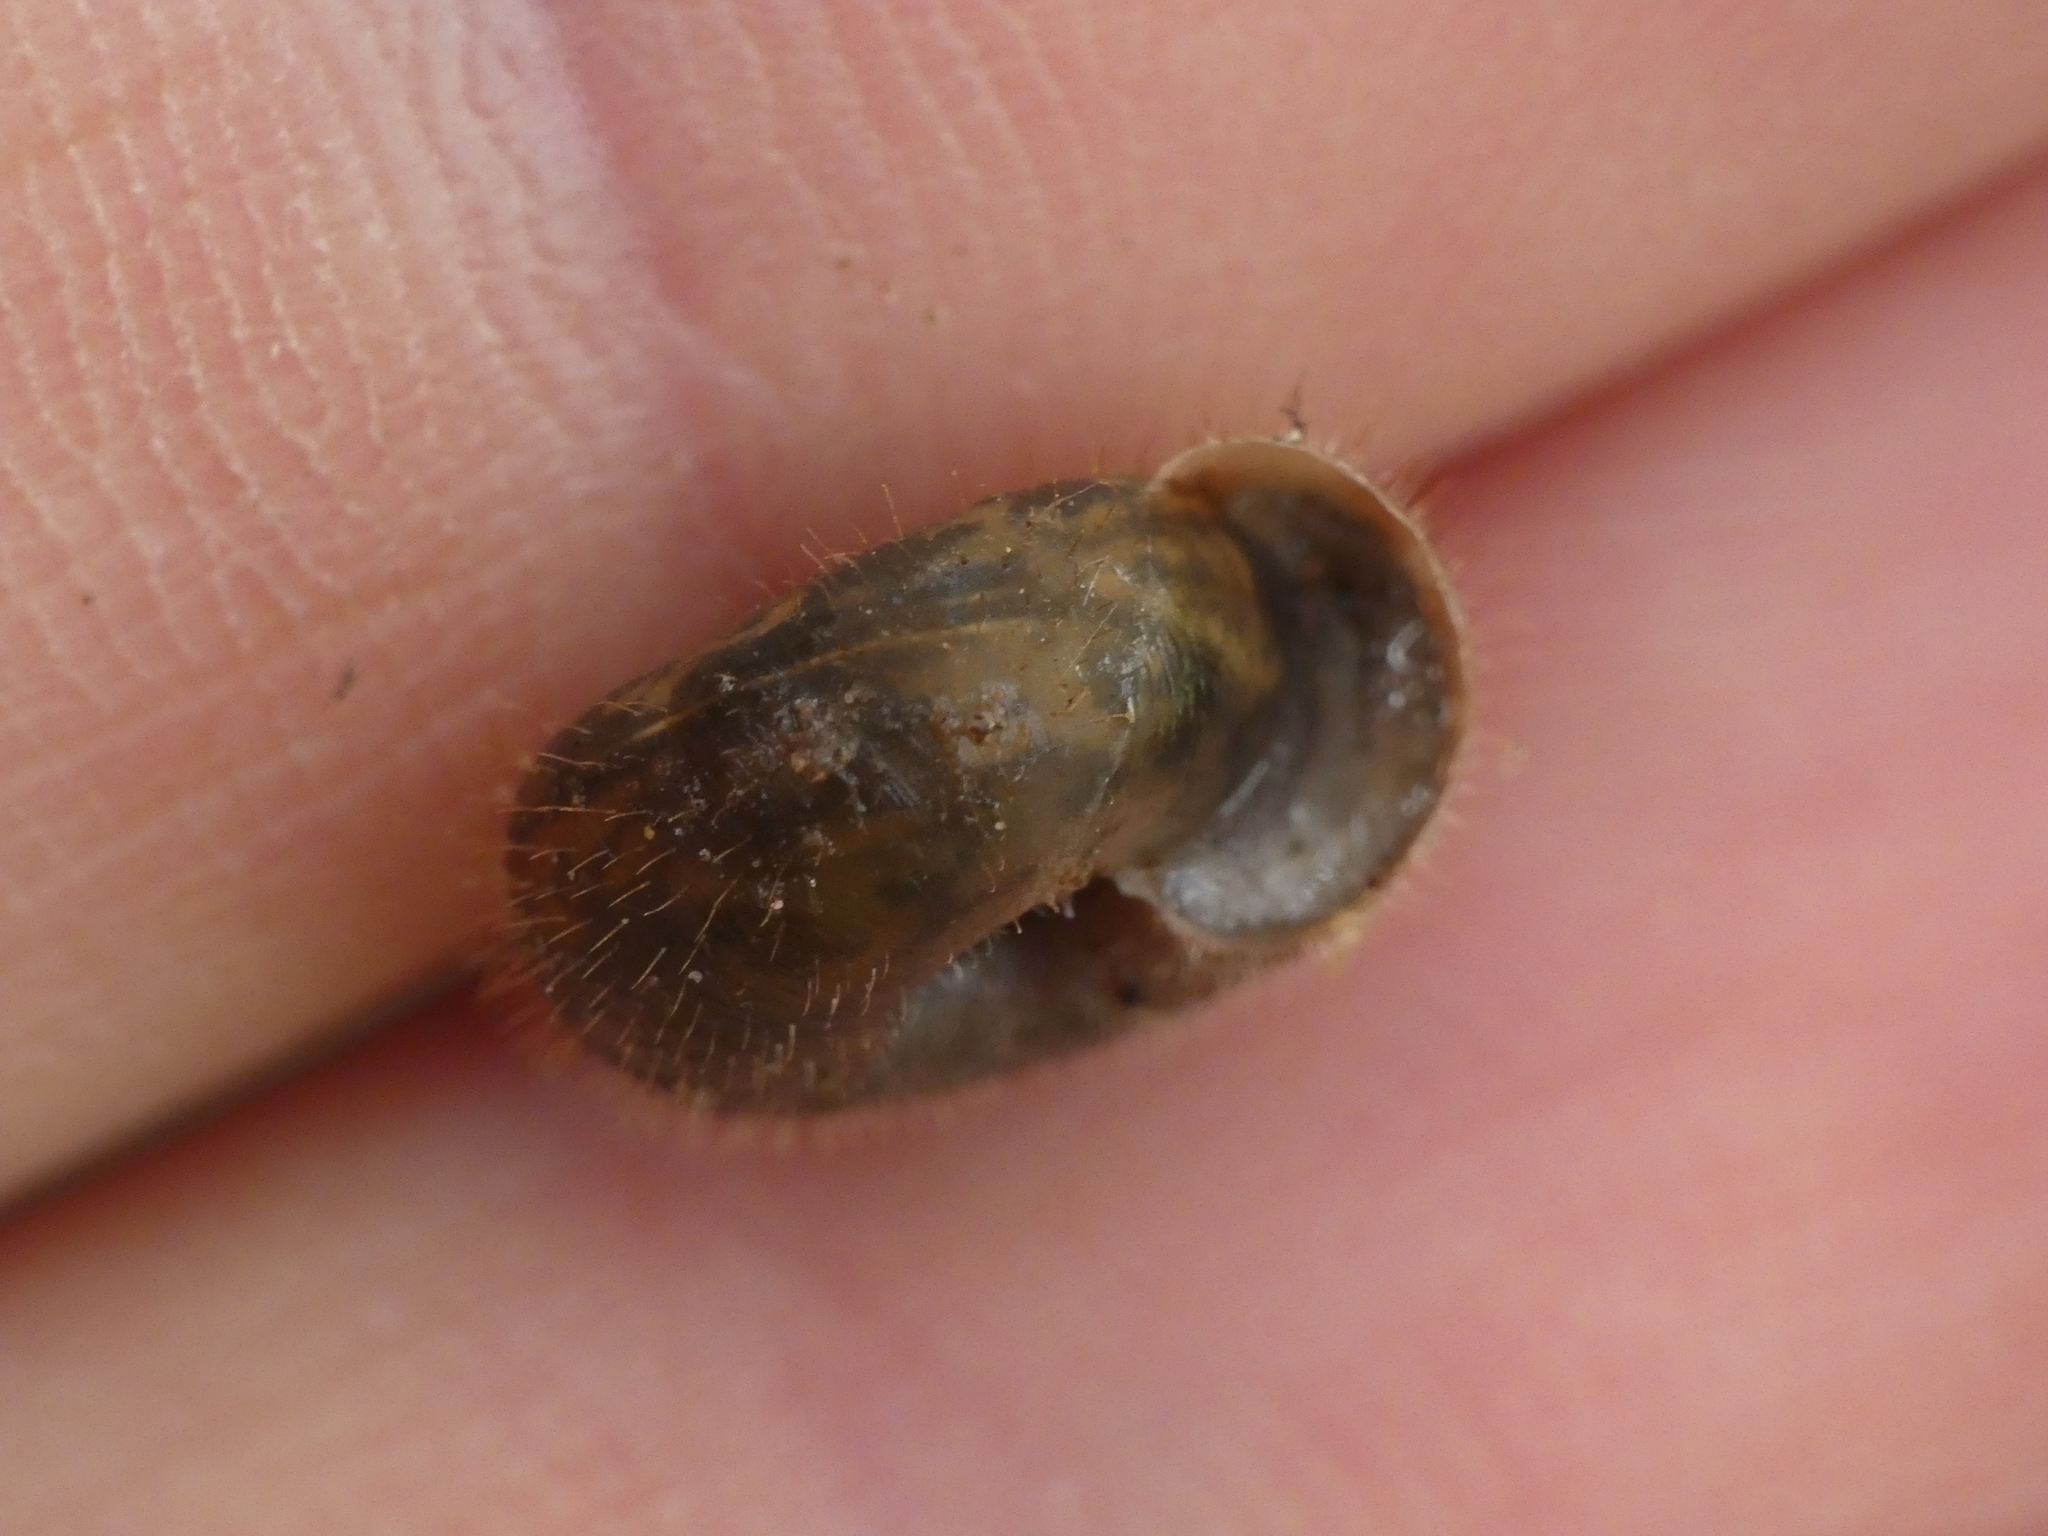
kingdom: Animalia
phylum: Mollusca
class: Gastropoda
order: Stylommatophora
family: Helicodontidae
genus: Helicodonta
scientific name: Helicodonta obvoluta
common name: Cheese snail
